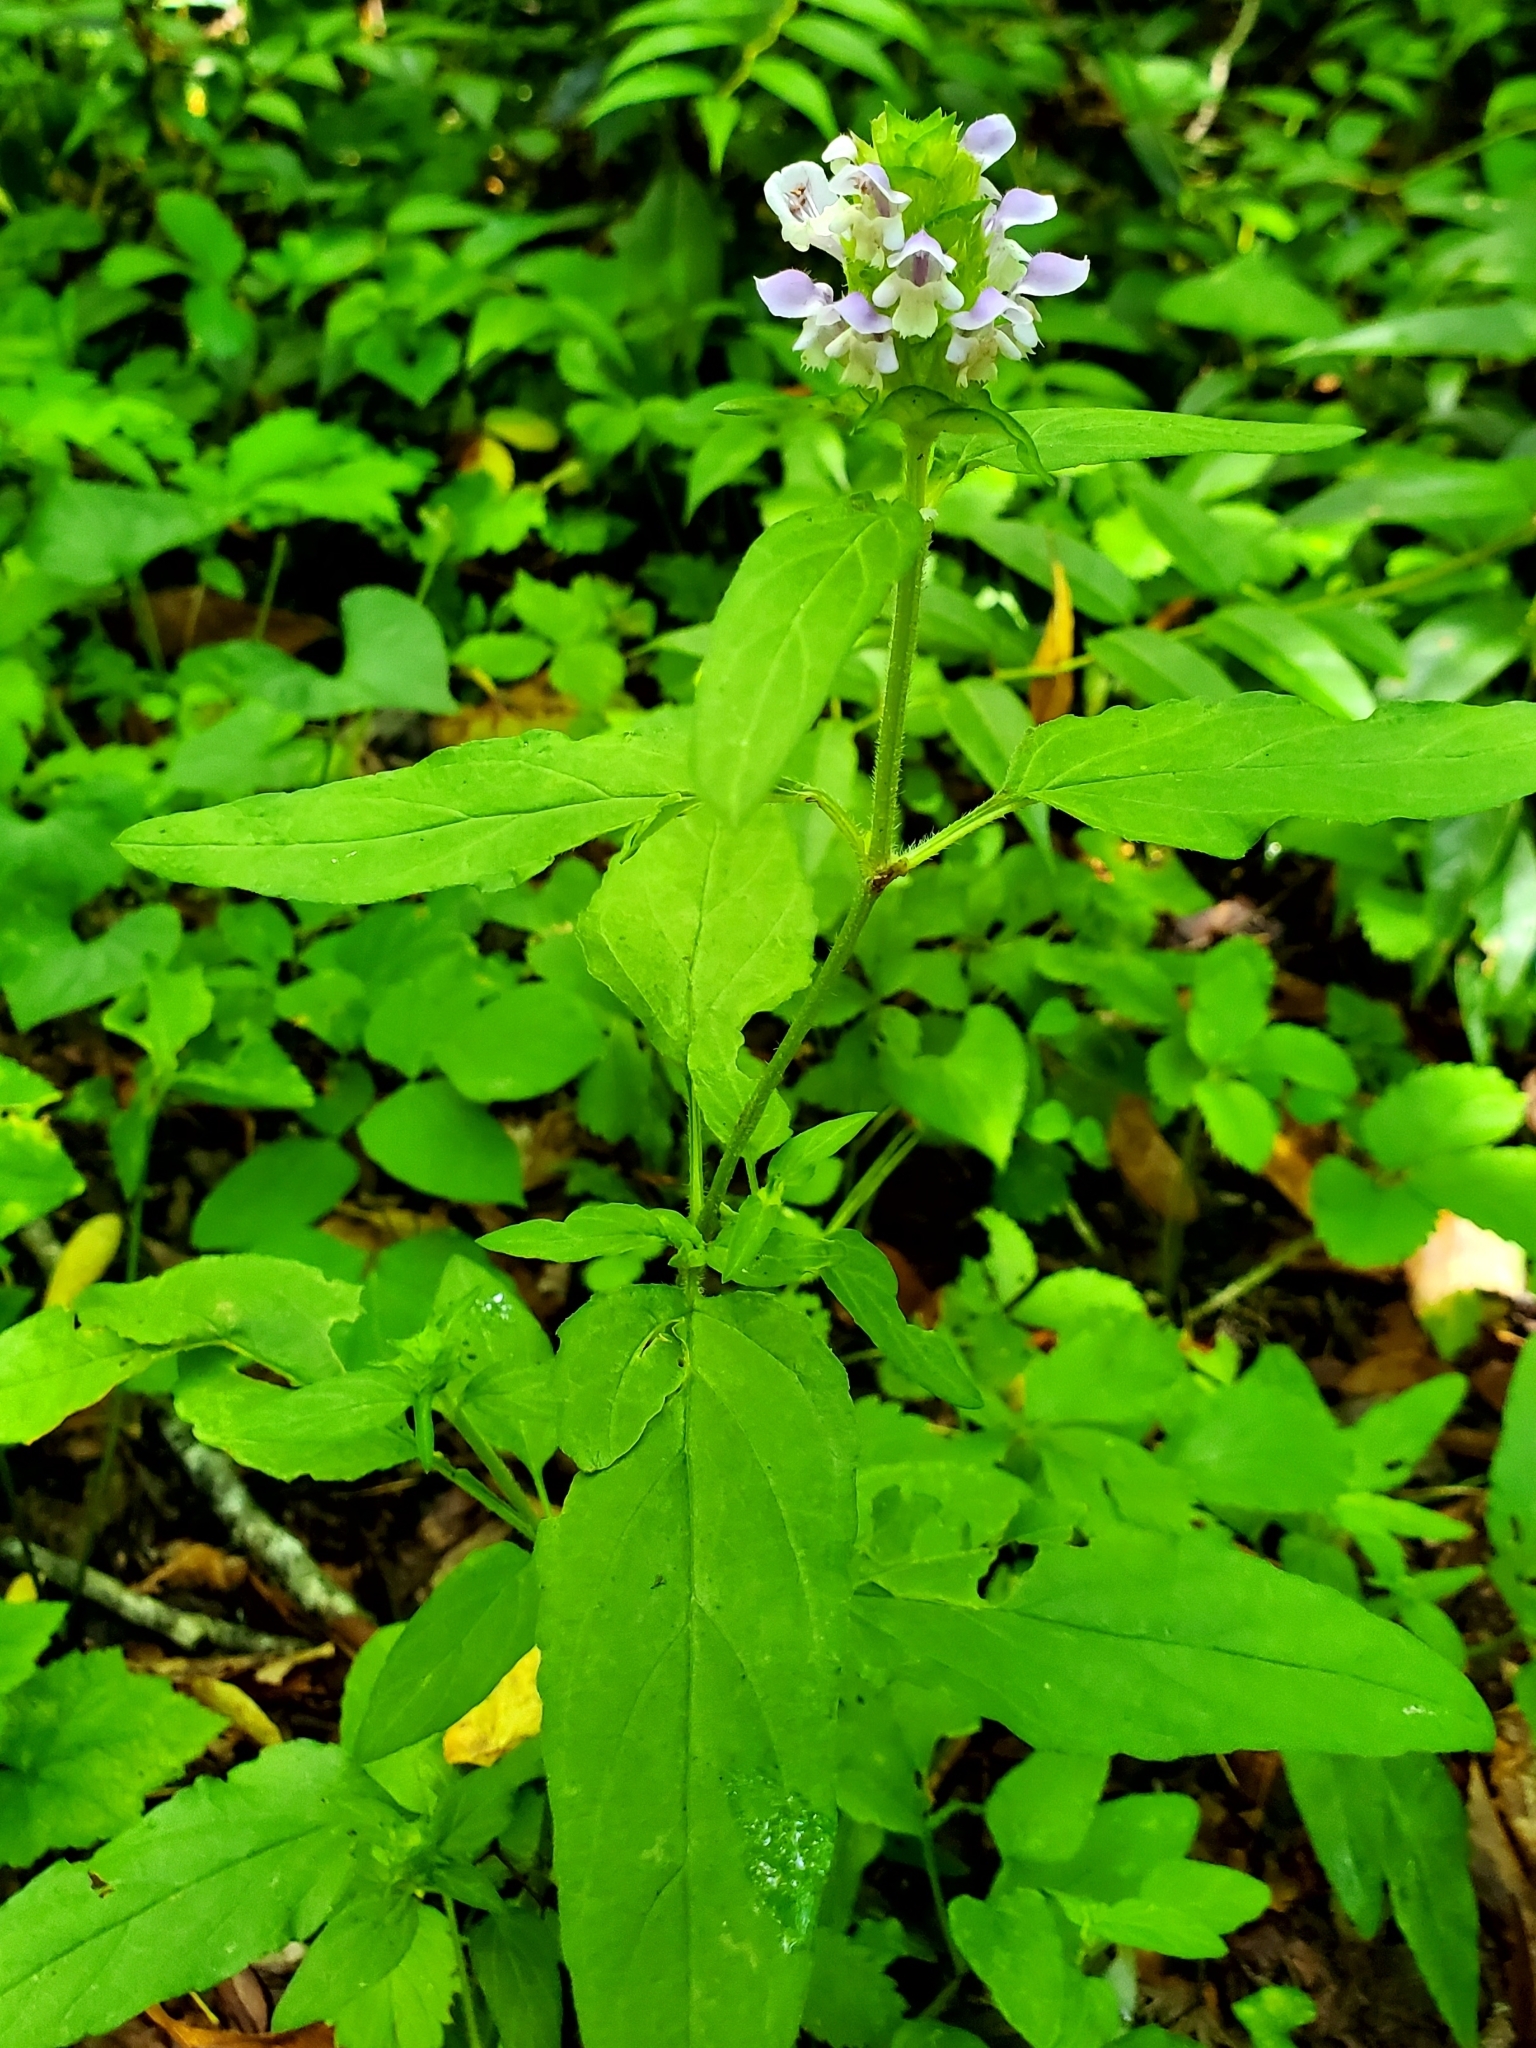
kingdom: Plantae
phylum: Tracheophyta
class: Magnoliopsida
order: Lamiales
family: Lamiaceae
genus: Prunella
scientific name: Prunella vulgaris
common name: Heal-all
